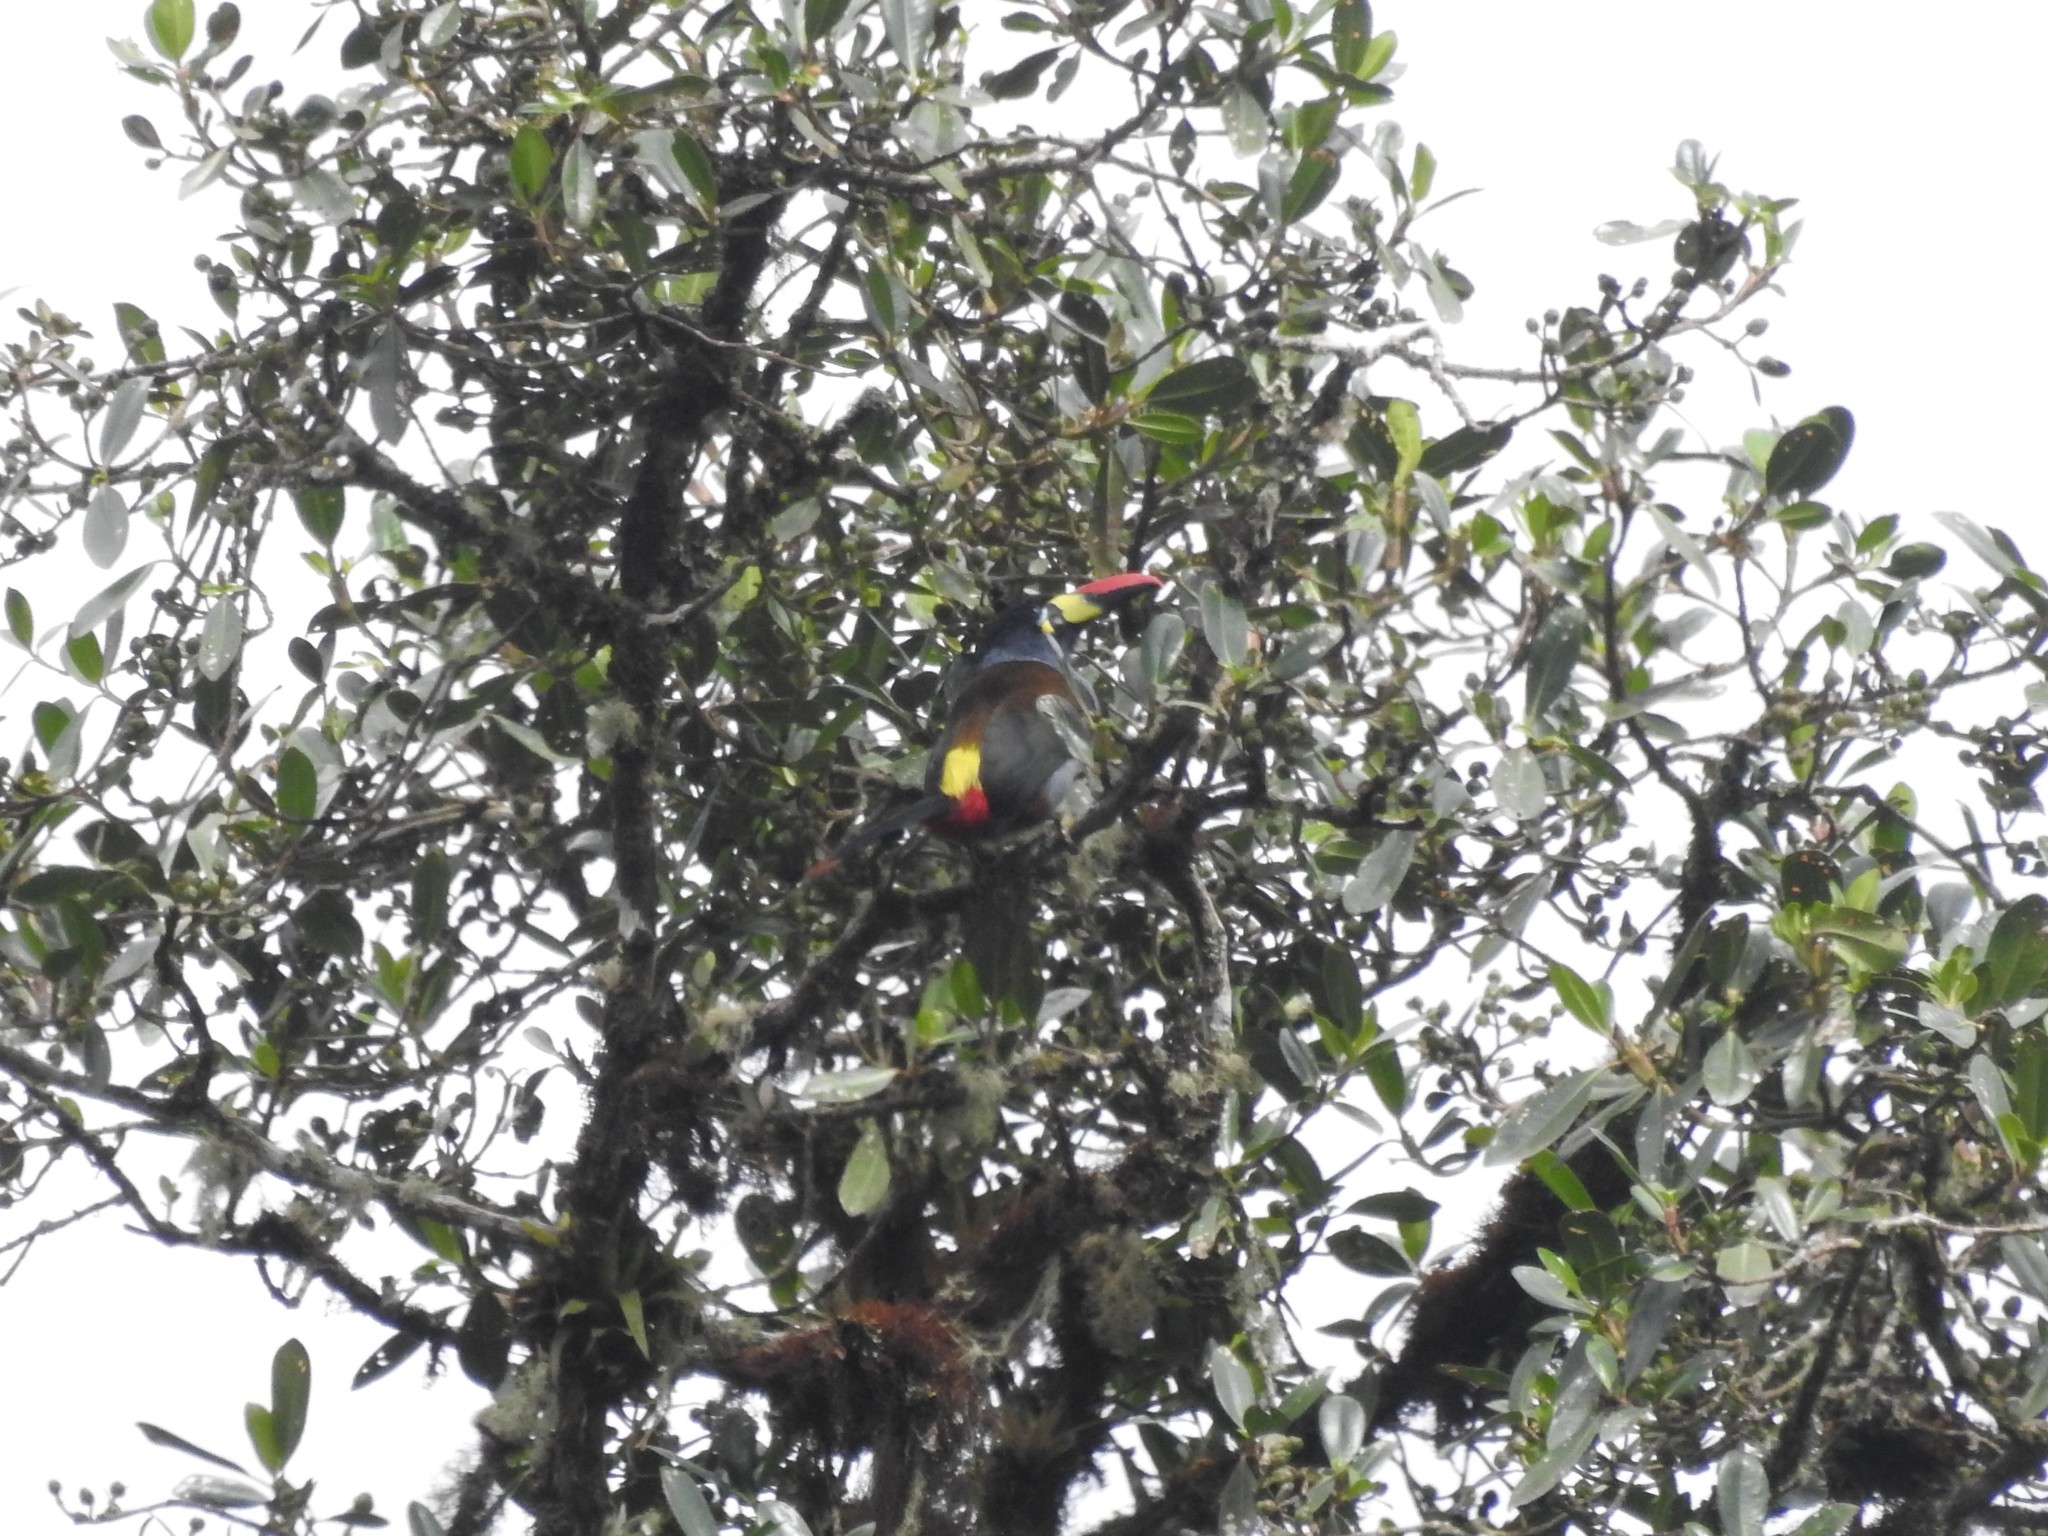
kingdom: Animalia
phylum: Chordata
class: Aves
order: Piciformes
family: Ramphastidae
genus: Andigena
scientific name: Andigena hypoglauca
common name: Grey-breasted mountain toucan
